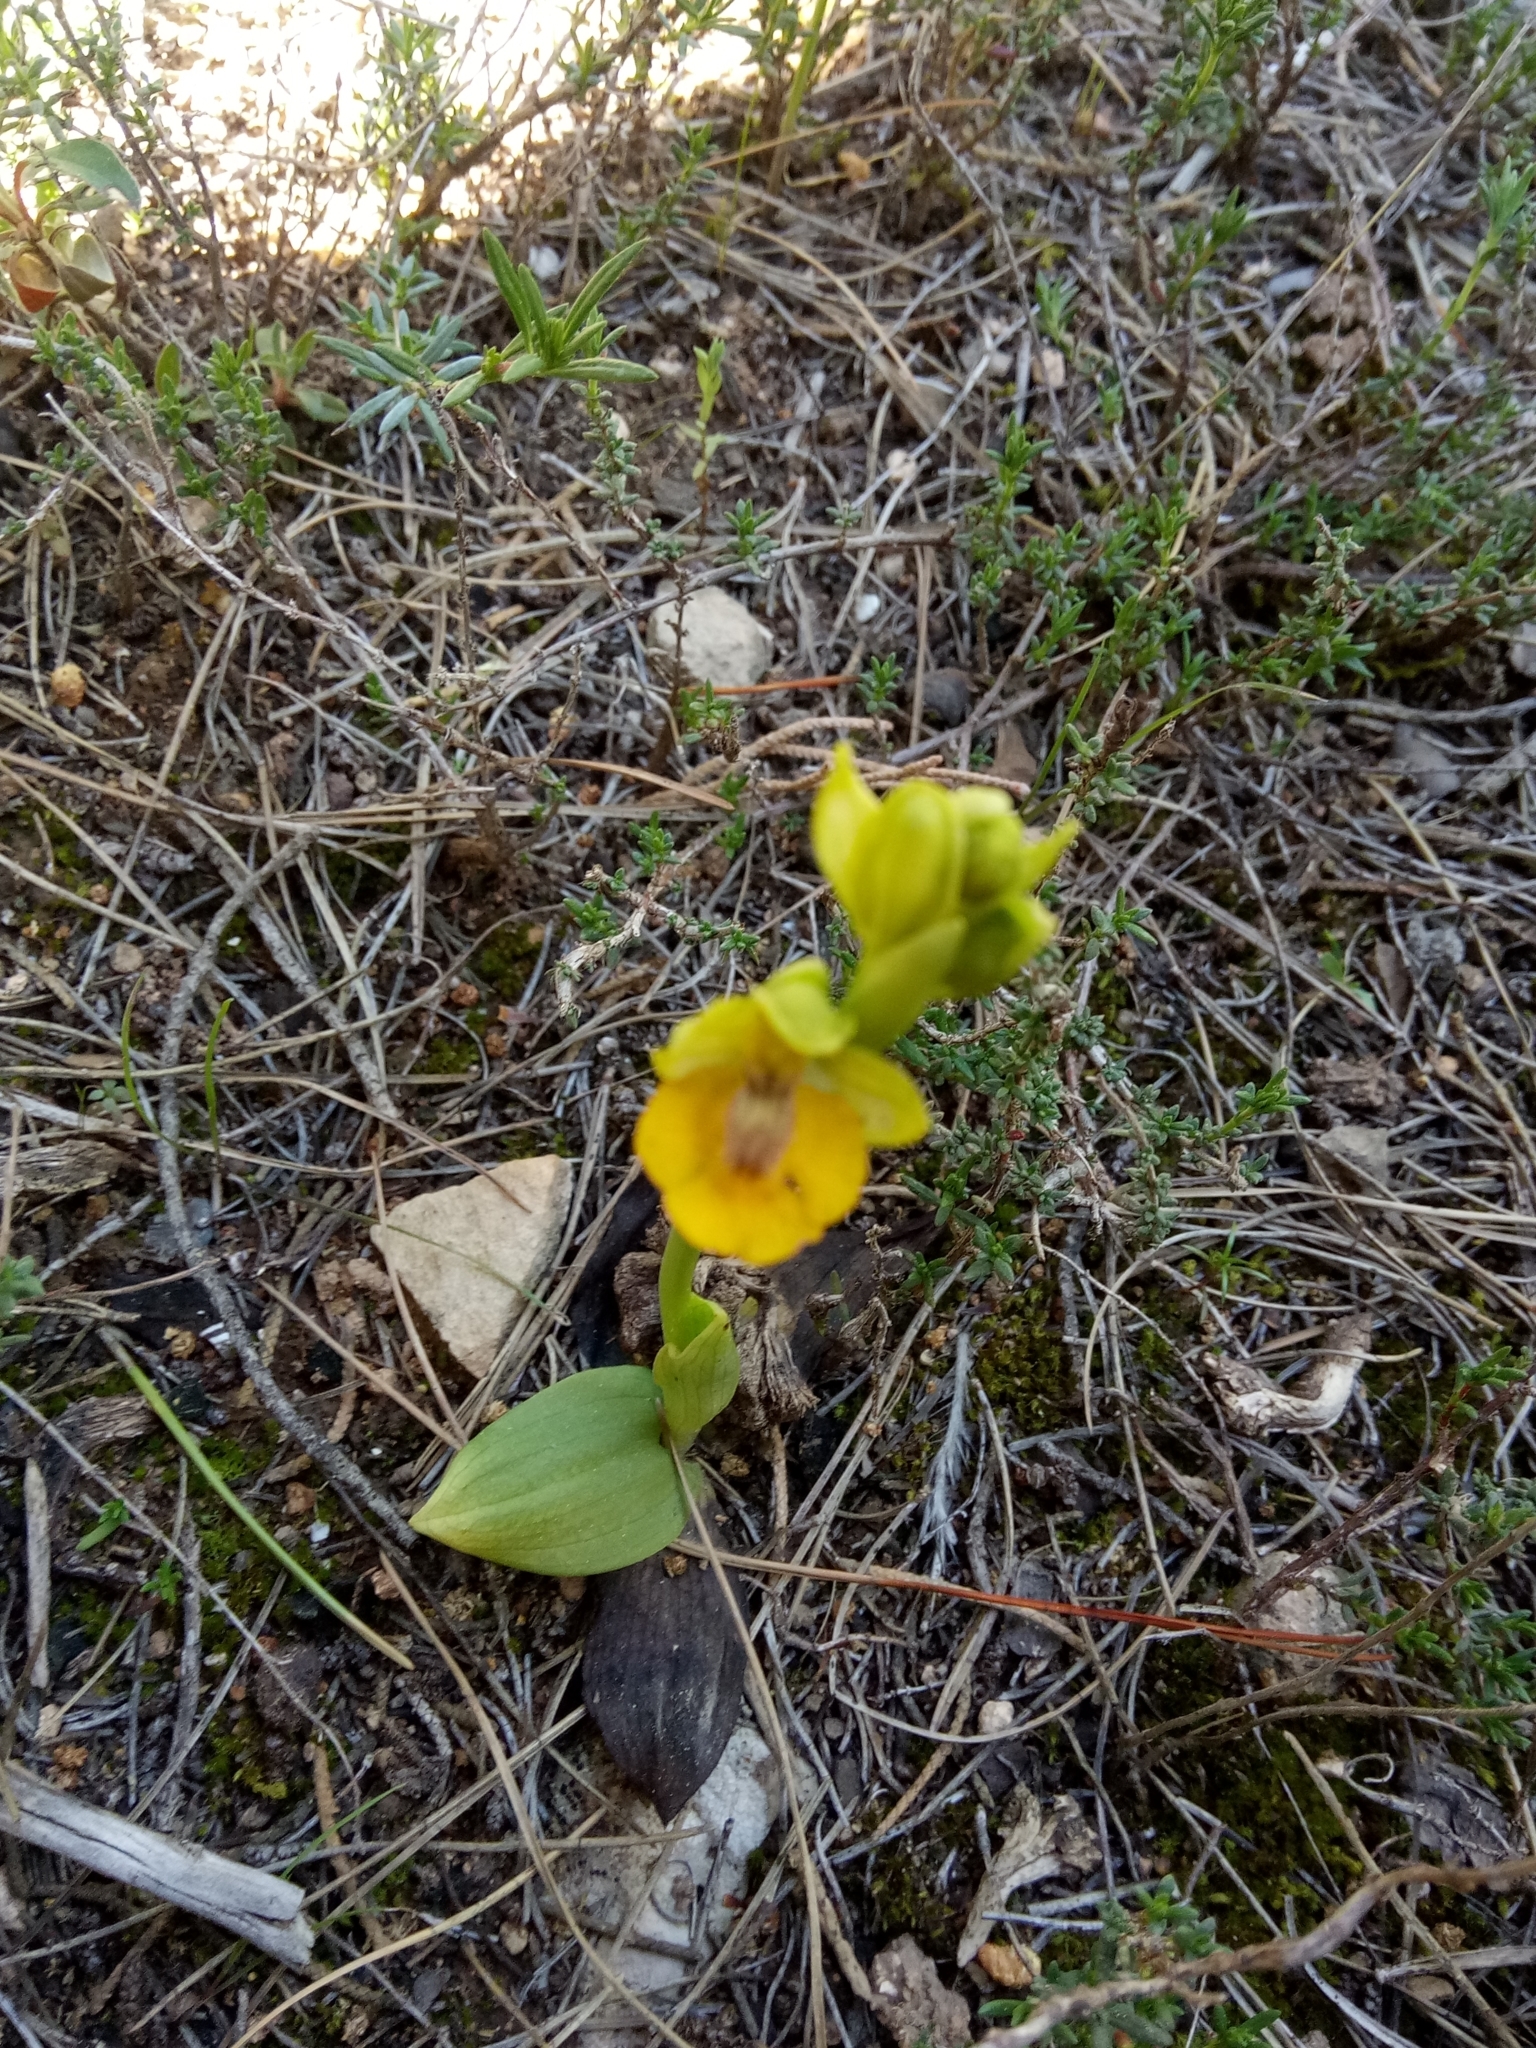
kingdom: Plantae
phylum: Tracheophyta
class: Liliopsida
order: Asparagales
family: Orchidaceae
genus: Ophrys
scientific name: Ophrys lutea
